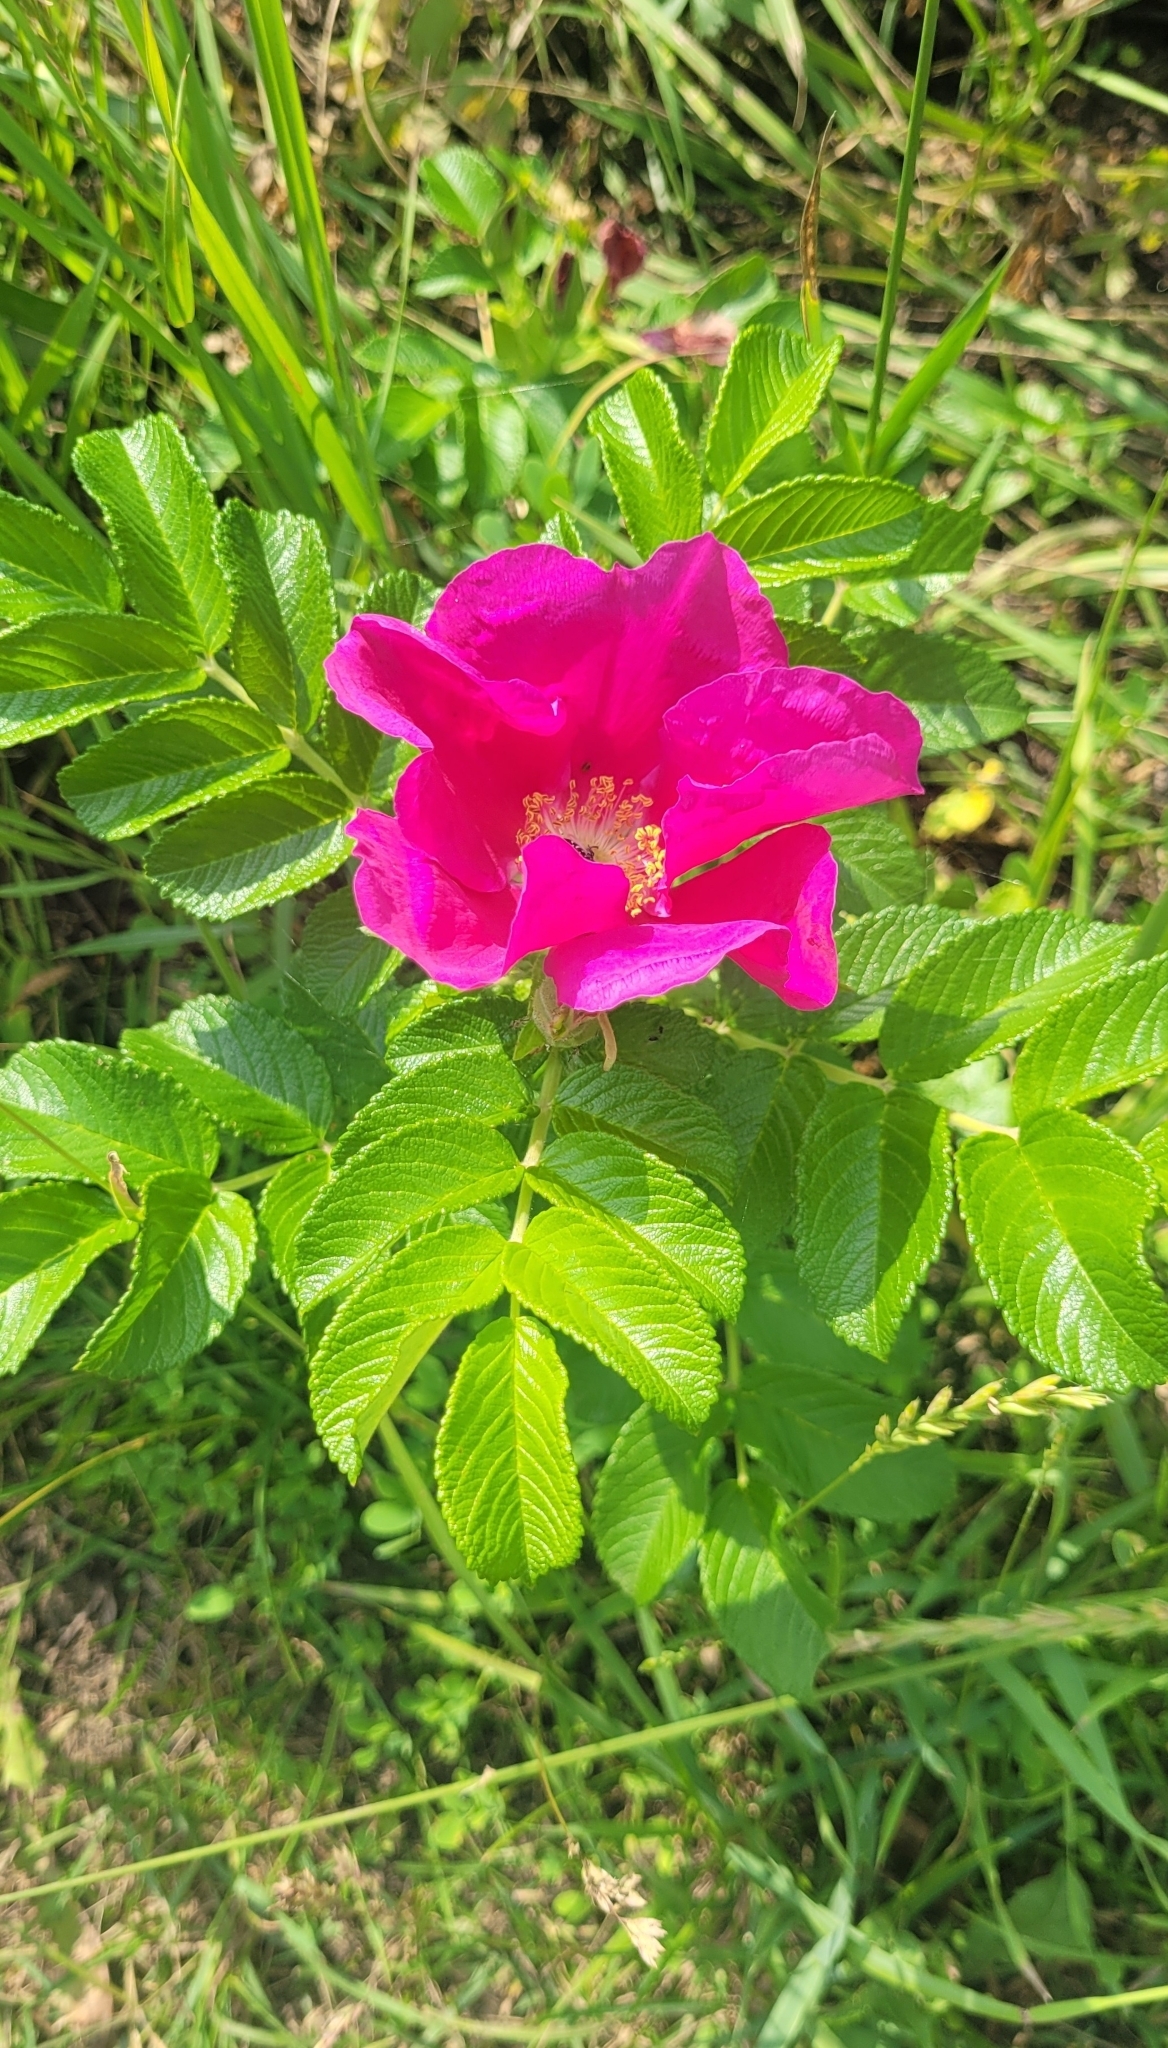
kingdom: Plantae
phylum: Tracheophyta
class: Magnoliopsida
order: Rosales
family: Rosaceae
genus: Rosa
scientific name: Rosa rugosa
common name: Japanese rose
